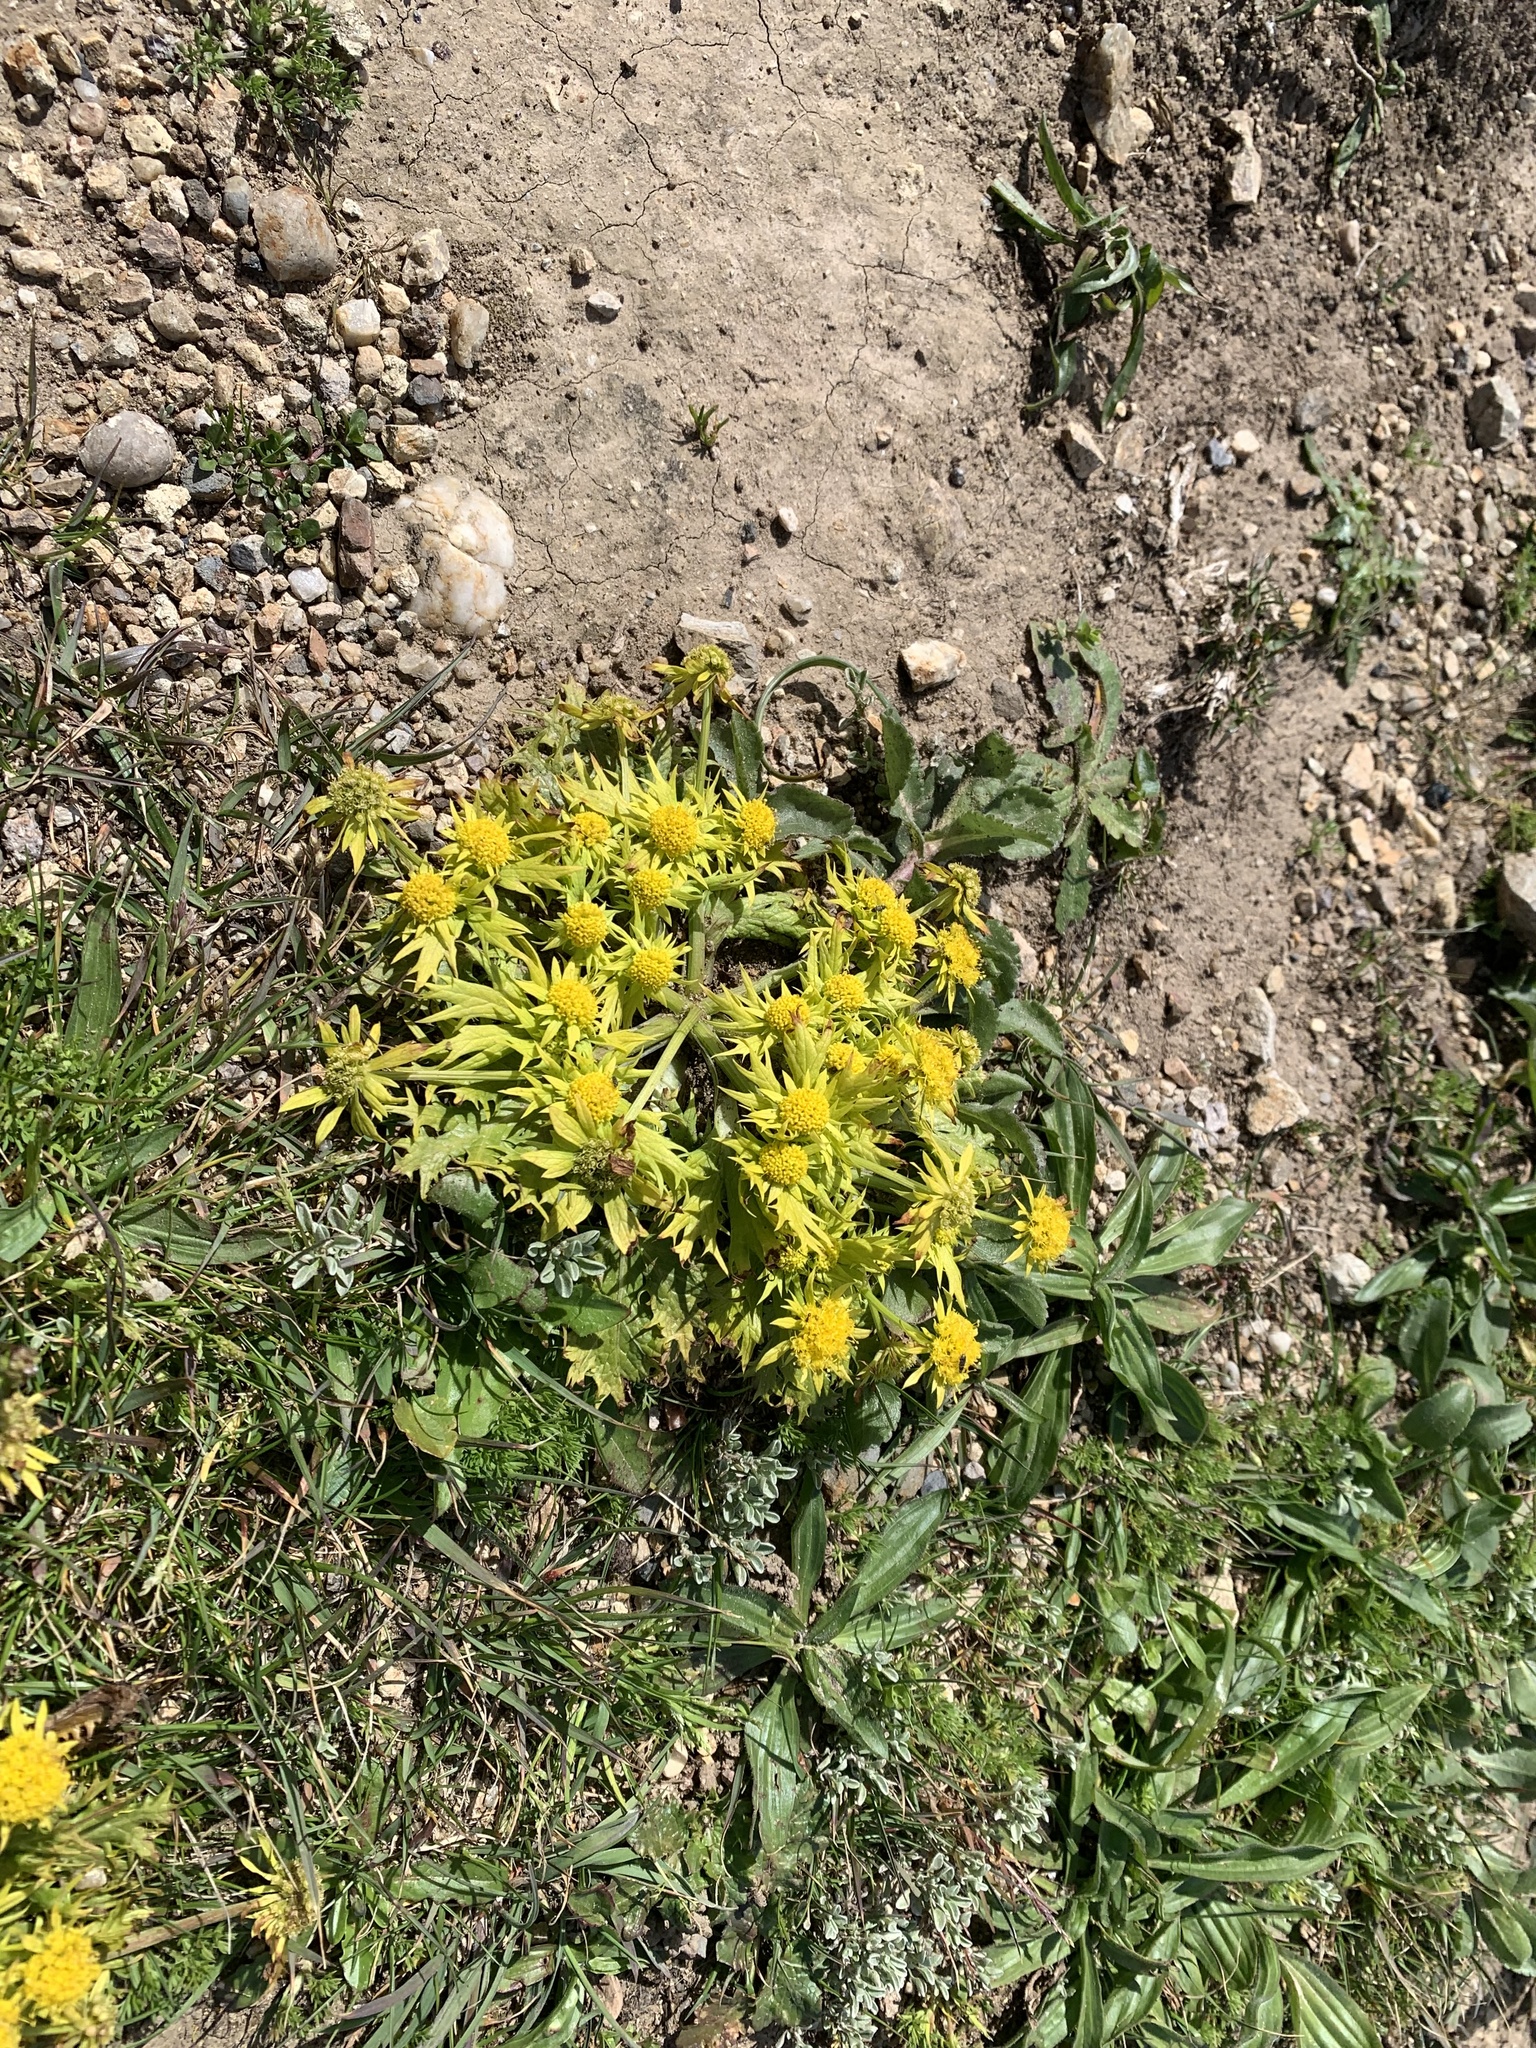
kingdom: Plantae
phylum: Tracheophyta
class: Magnoliopsida
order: Apiales
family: Apiaceae
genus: Sanicula
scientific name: Sanicula arctopoides
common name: Footsteps-of-spring
